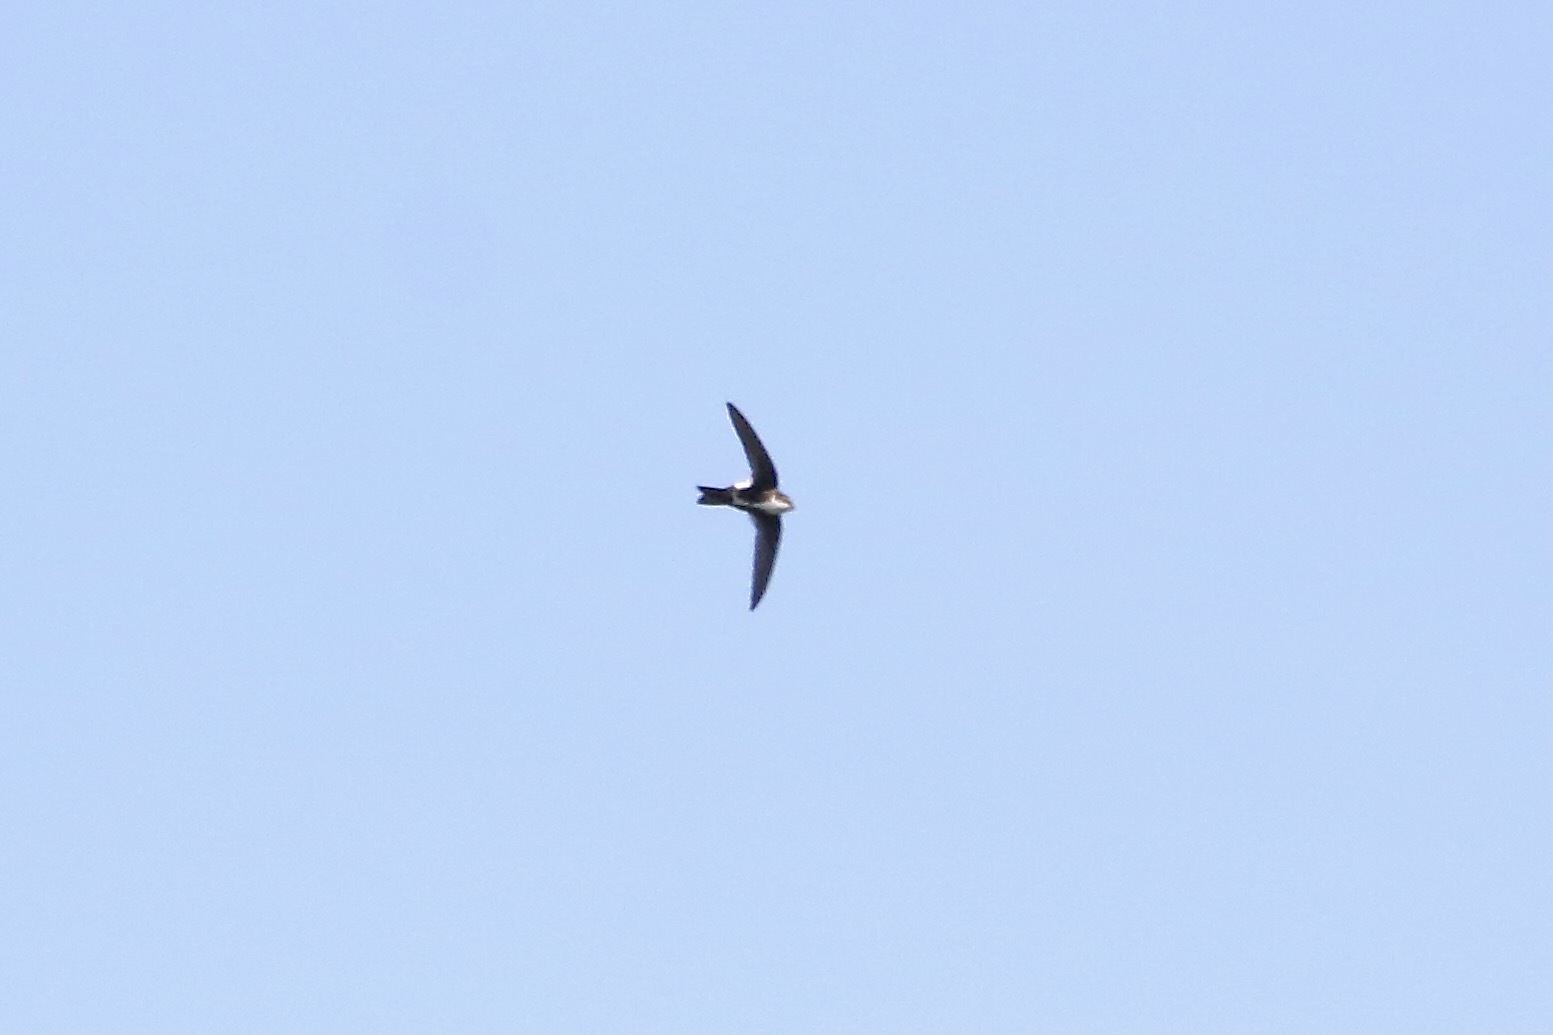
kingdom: Animalia
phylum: Chordata
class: Aves
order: Apodiformes
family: Apodidae
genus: Aeronautes
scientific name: Aeronautes saxatalis
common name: White-throated swift
